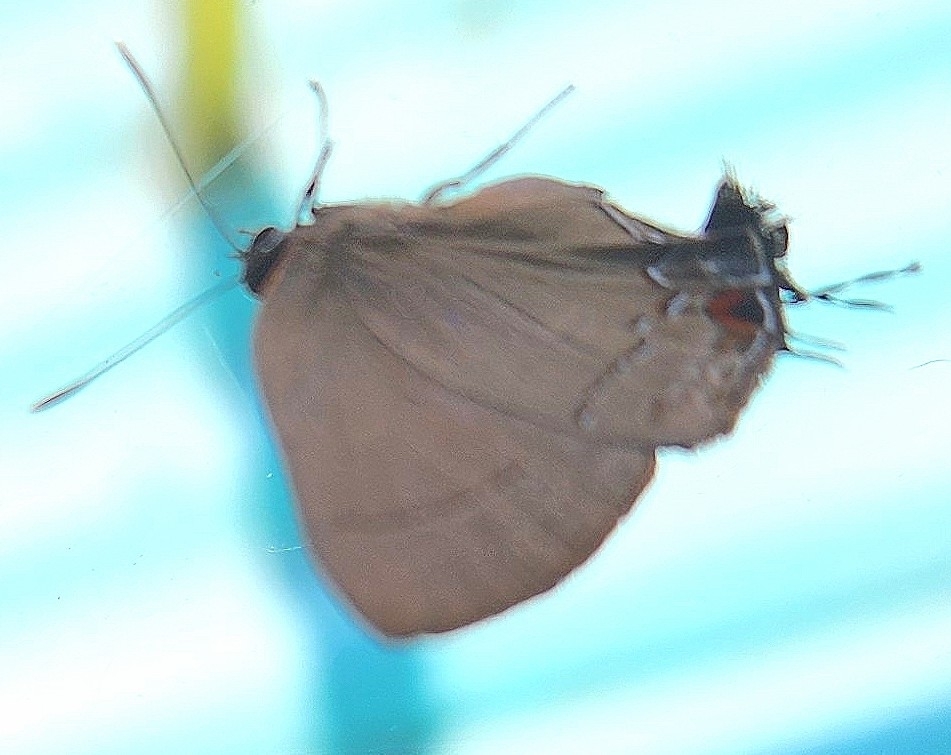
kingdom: Animalia
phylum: Arthropoda
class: Insecta
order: Lepidoptera
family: Lycaenidae
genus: Ziegleria
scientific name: Ziegleria hesperitis
